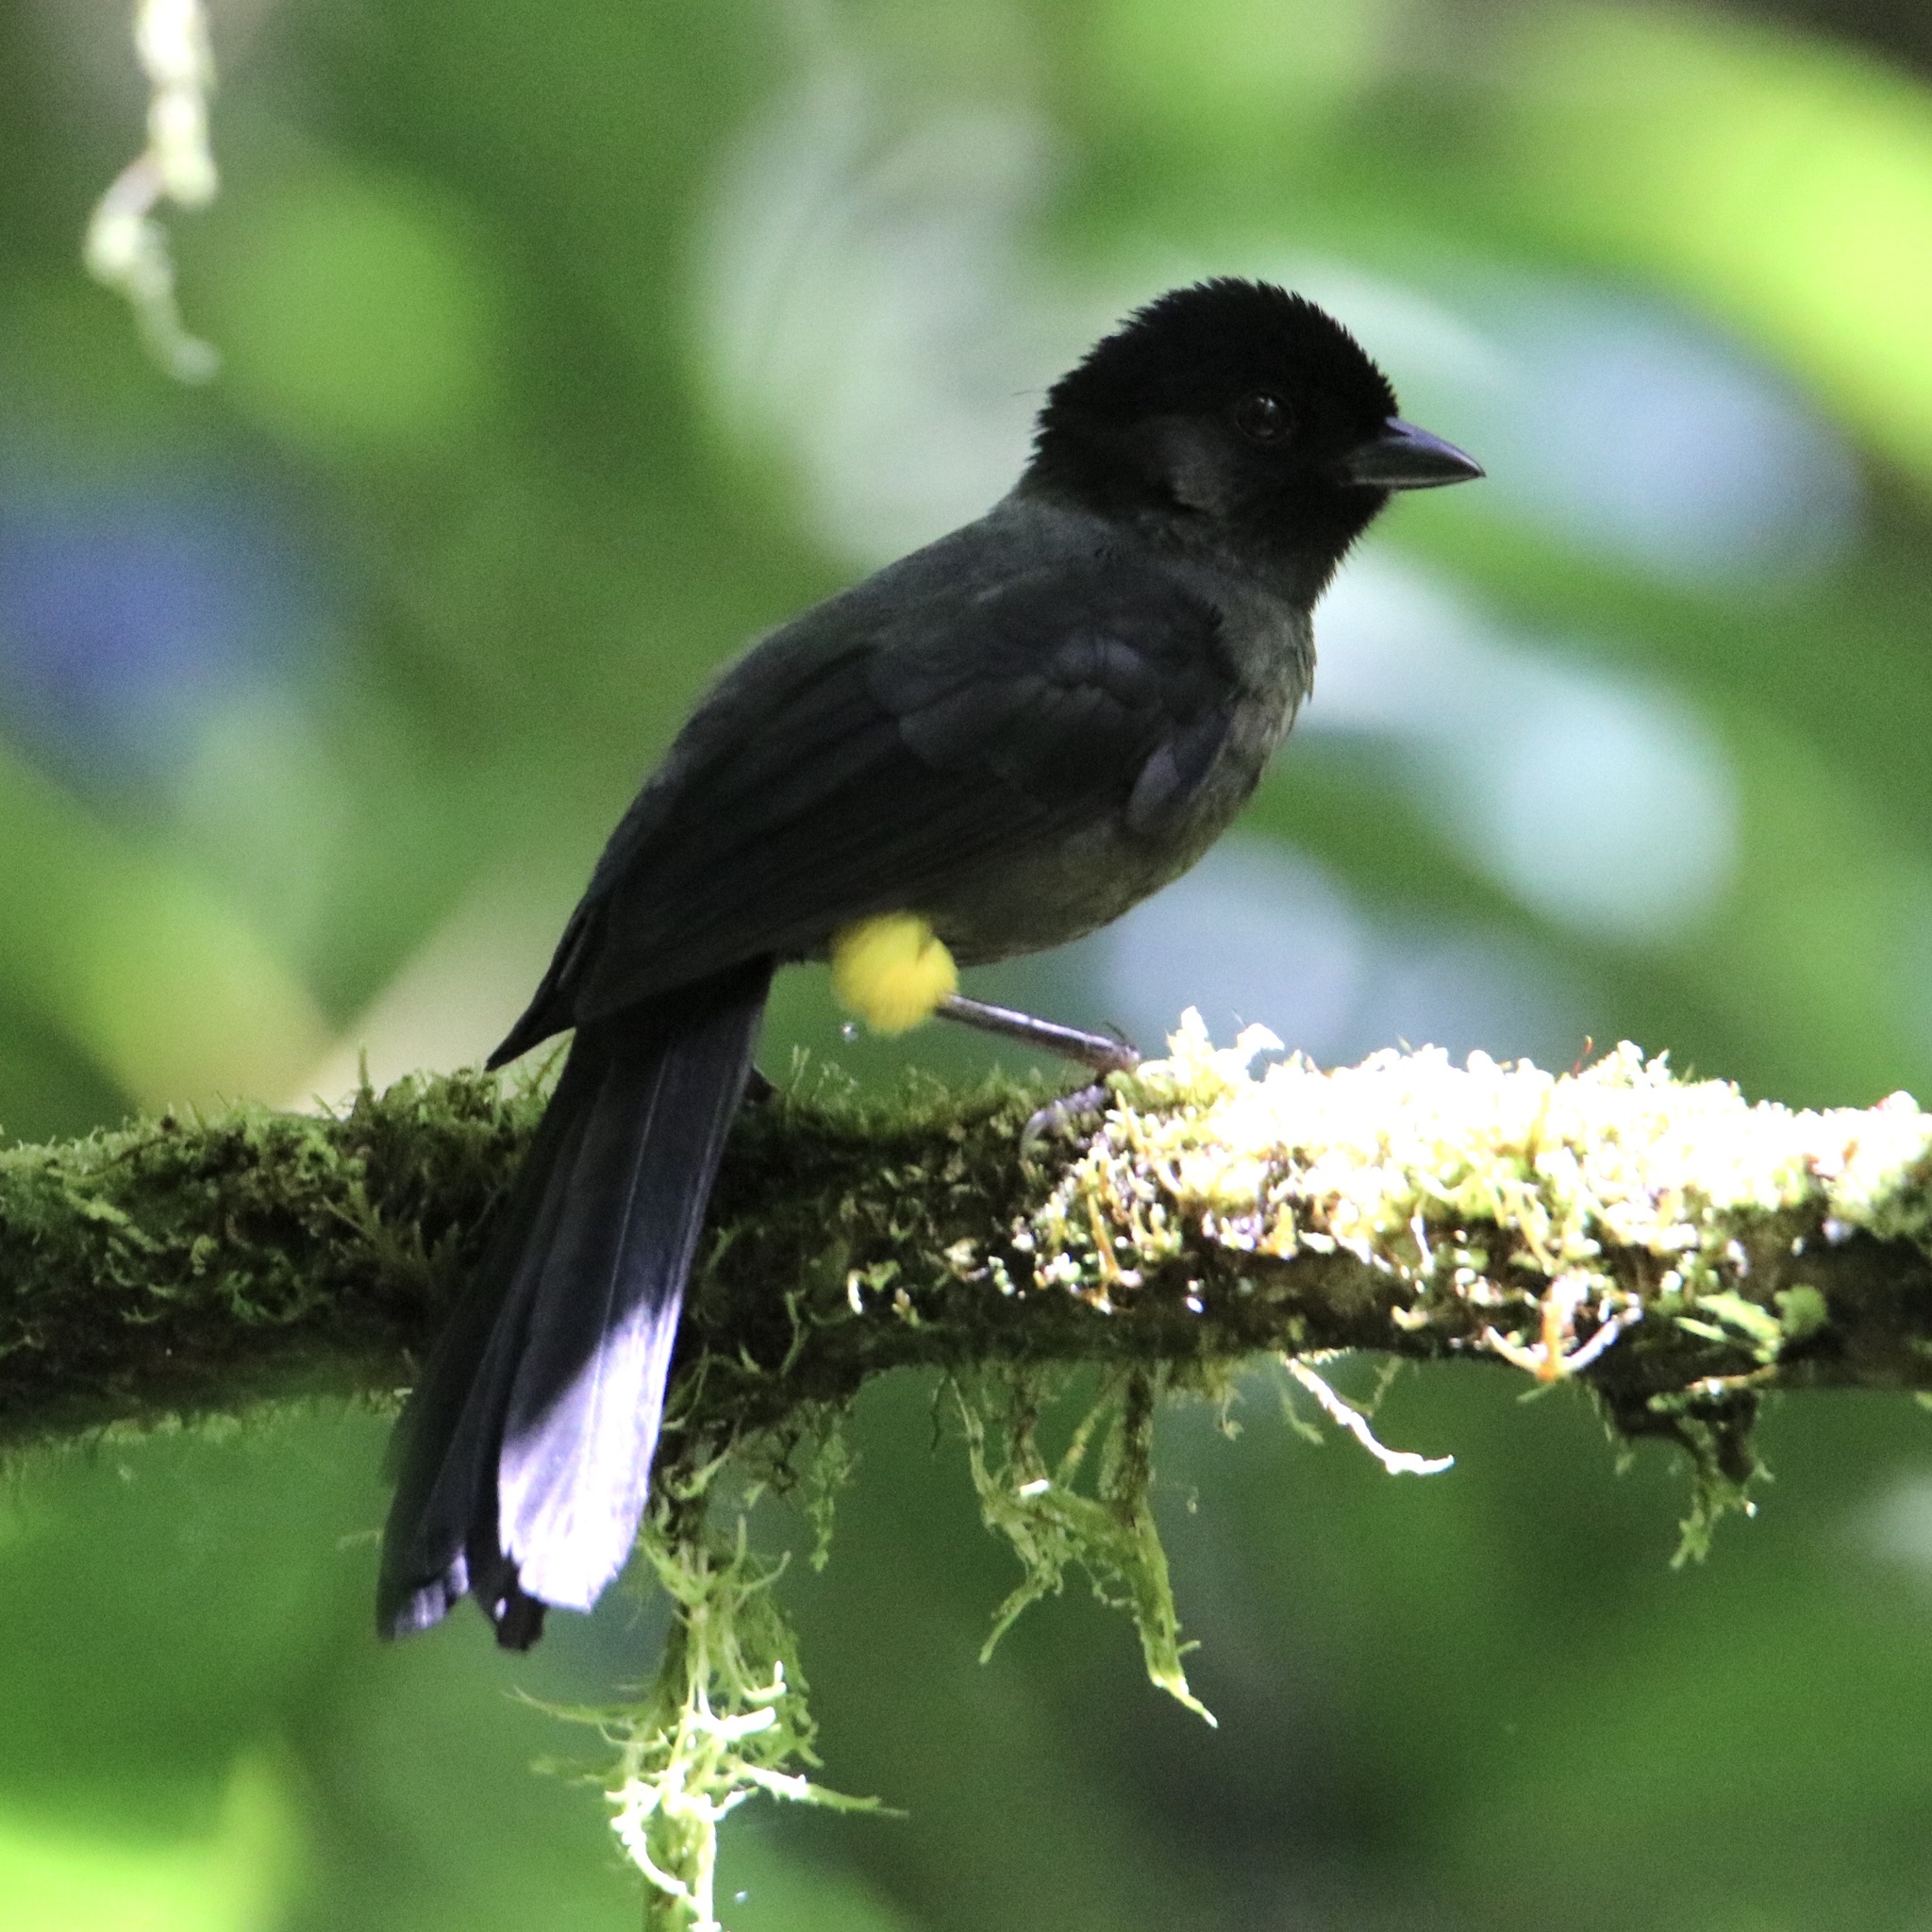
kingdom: Animalia
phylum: Chordata
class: Aves
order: Passeriformes
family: Passerellidae
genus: Atlapetes
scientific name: Atlapetes tibialis
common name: Yellow-thighed brushfinch
